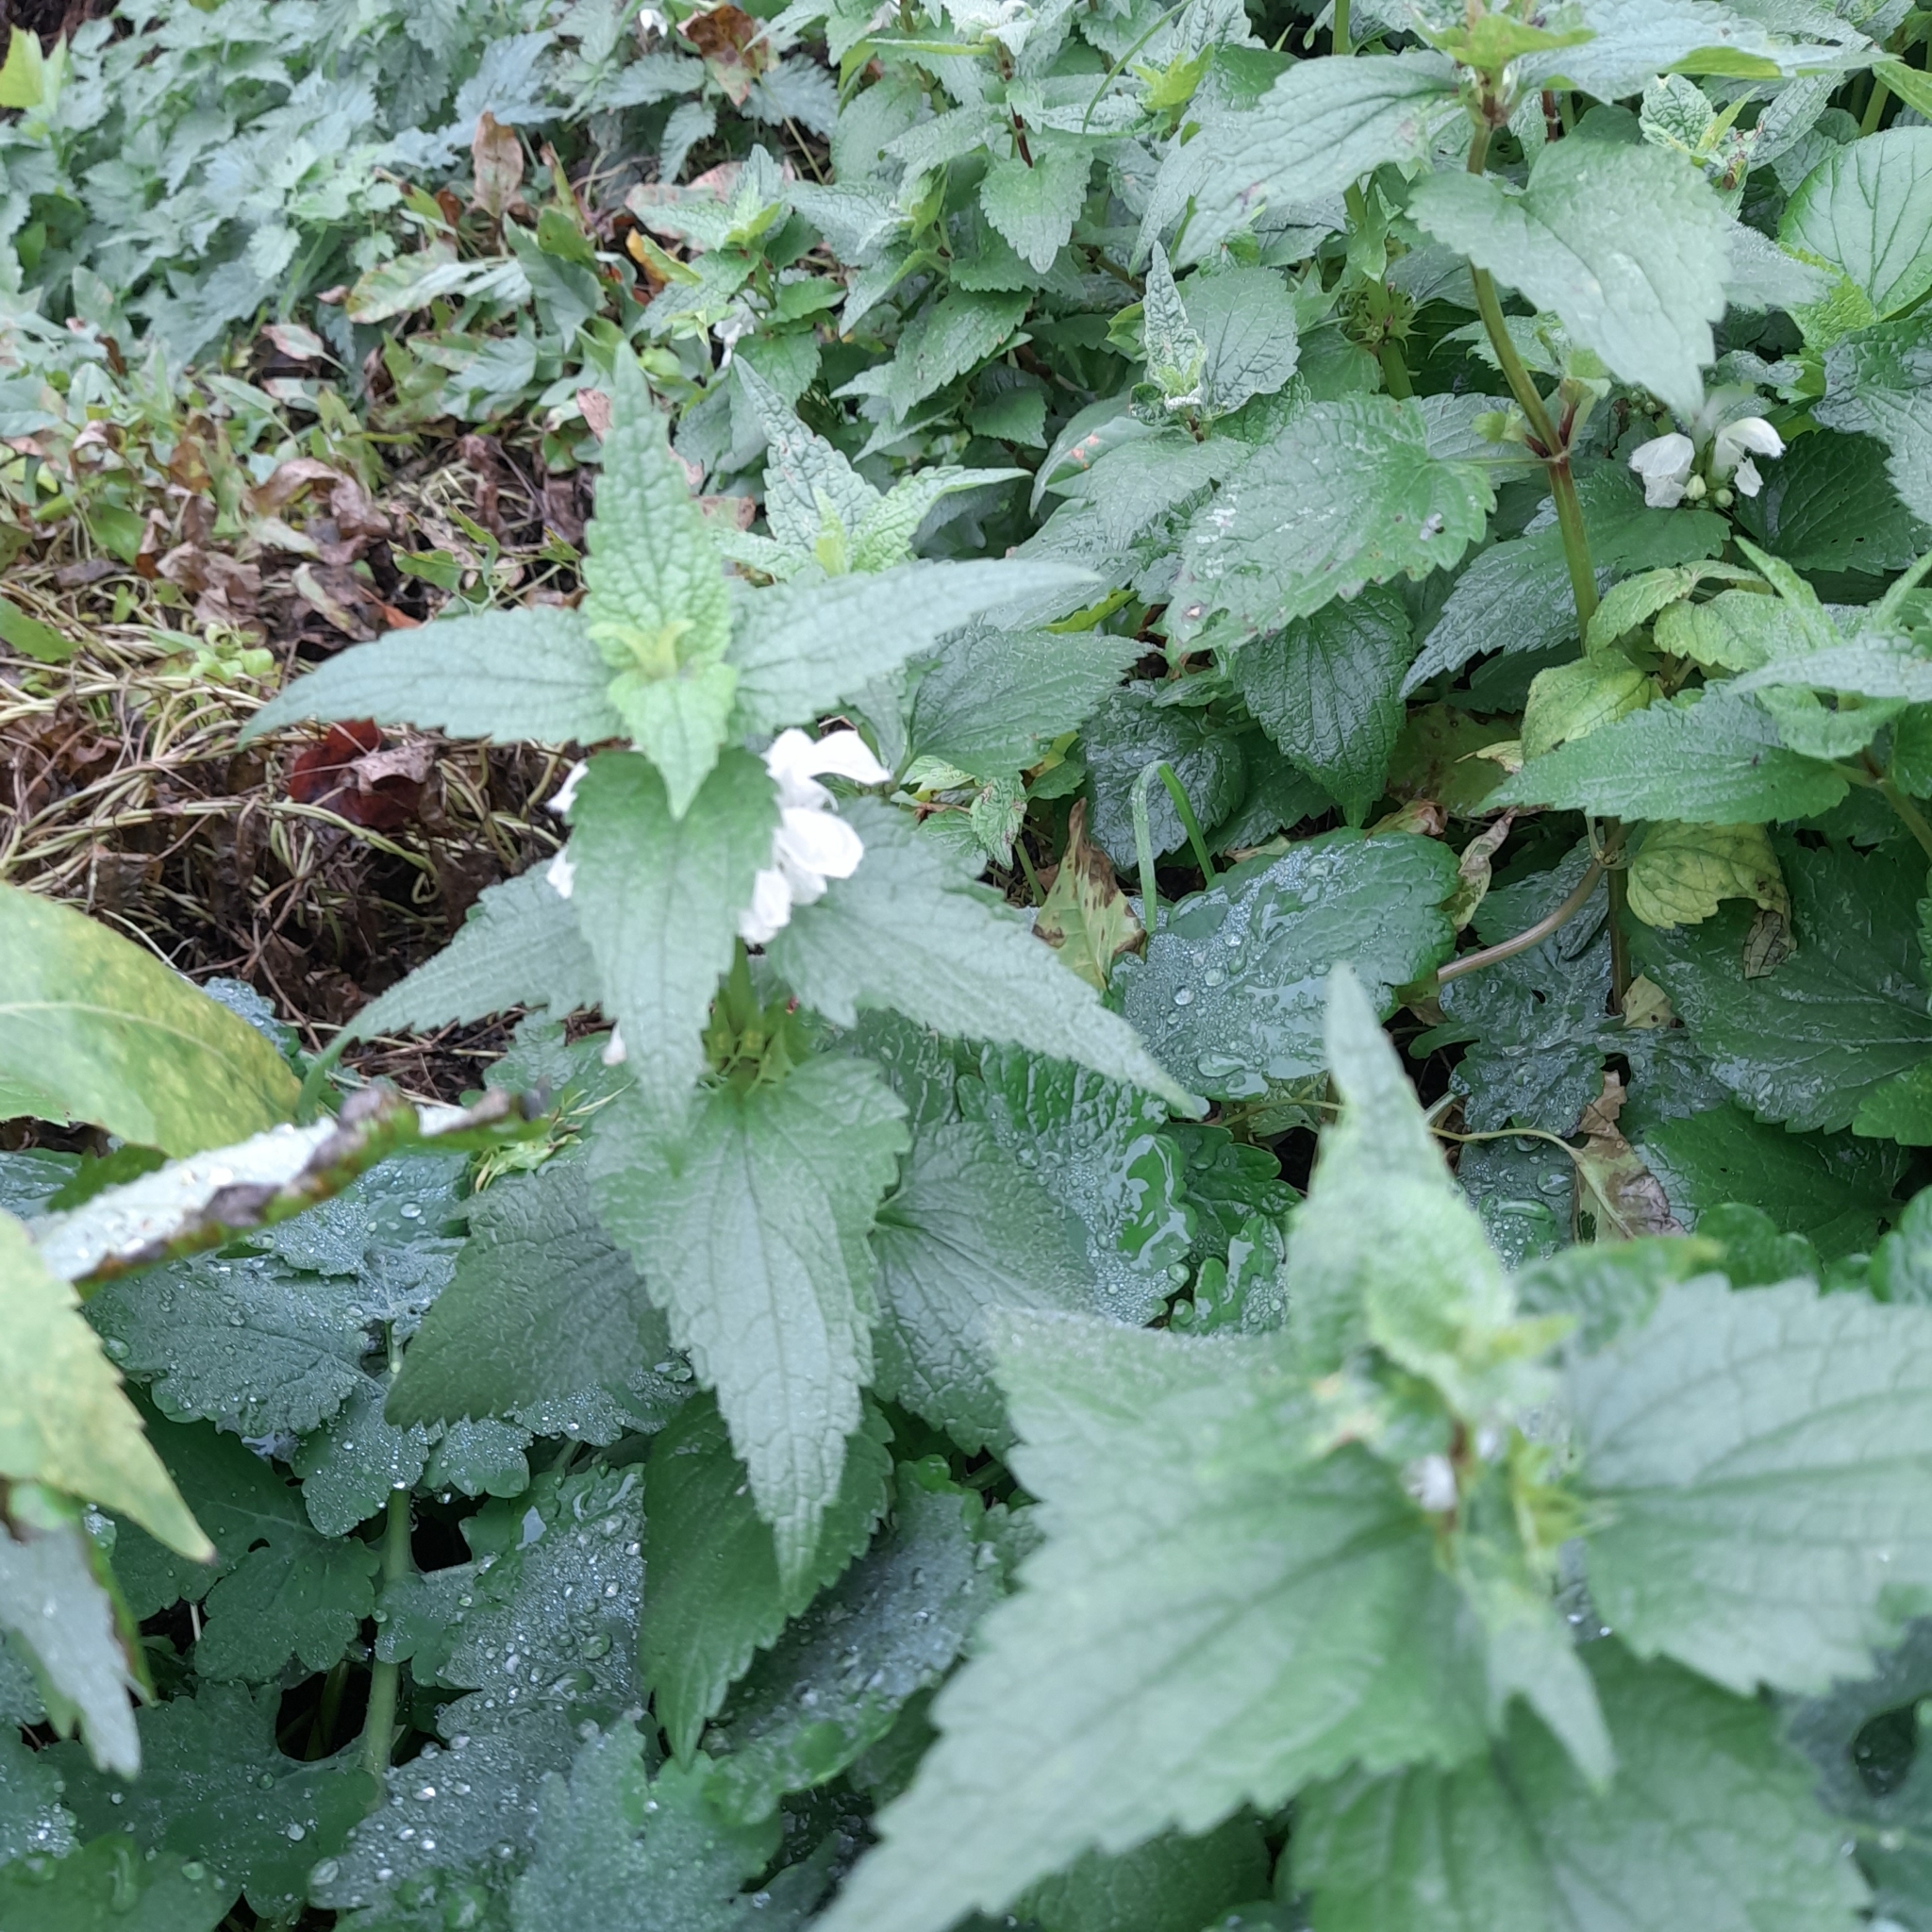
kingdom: Plantae
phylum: Tracheophyta
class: Magnoliopsida
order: Lamiales
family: Lamiaceae
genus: Lamium
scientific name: Lamium album
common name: White dead-nettle
